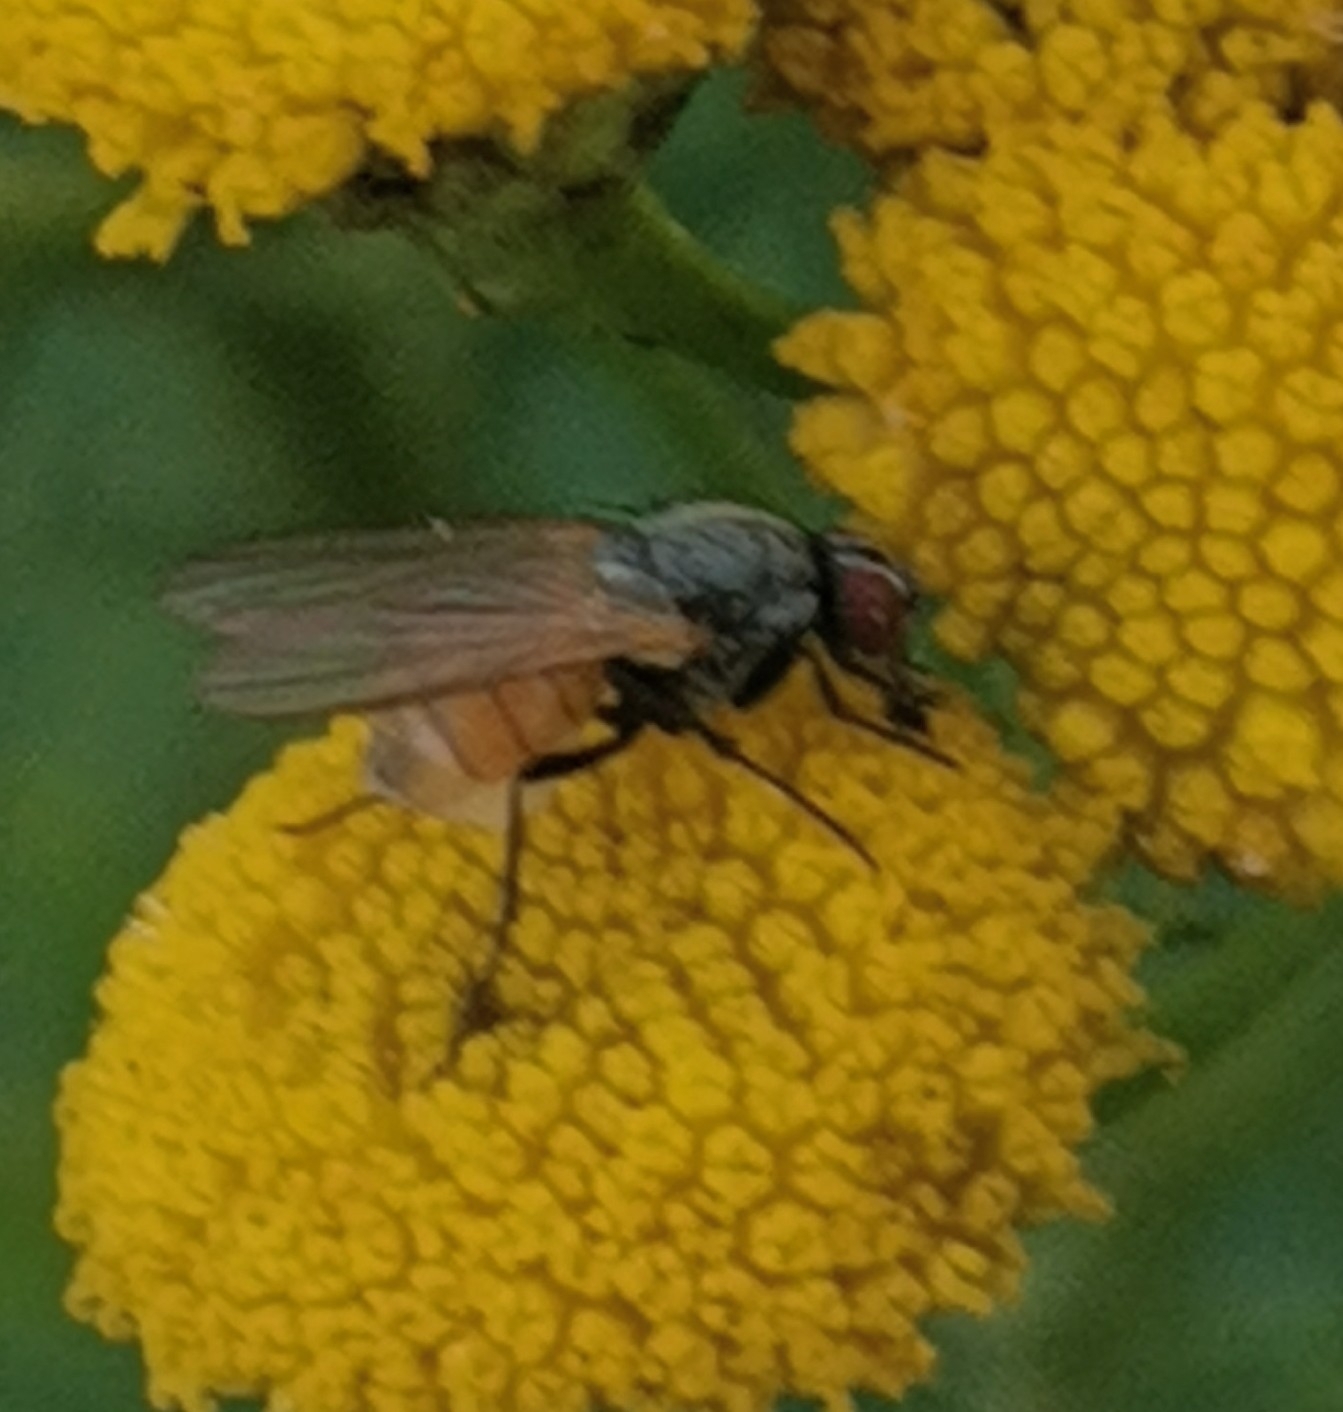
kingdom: Animalia
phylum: Arthropoda
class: Insecta
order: Diptera
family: Muscidae
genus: Thricops
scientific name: Thricops semicinereus
